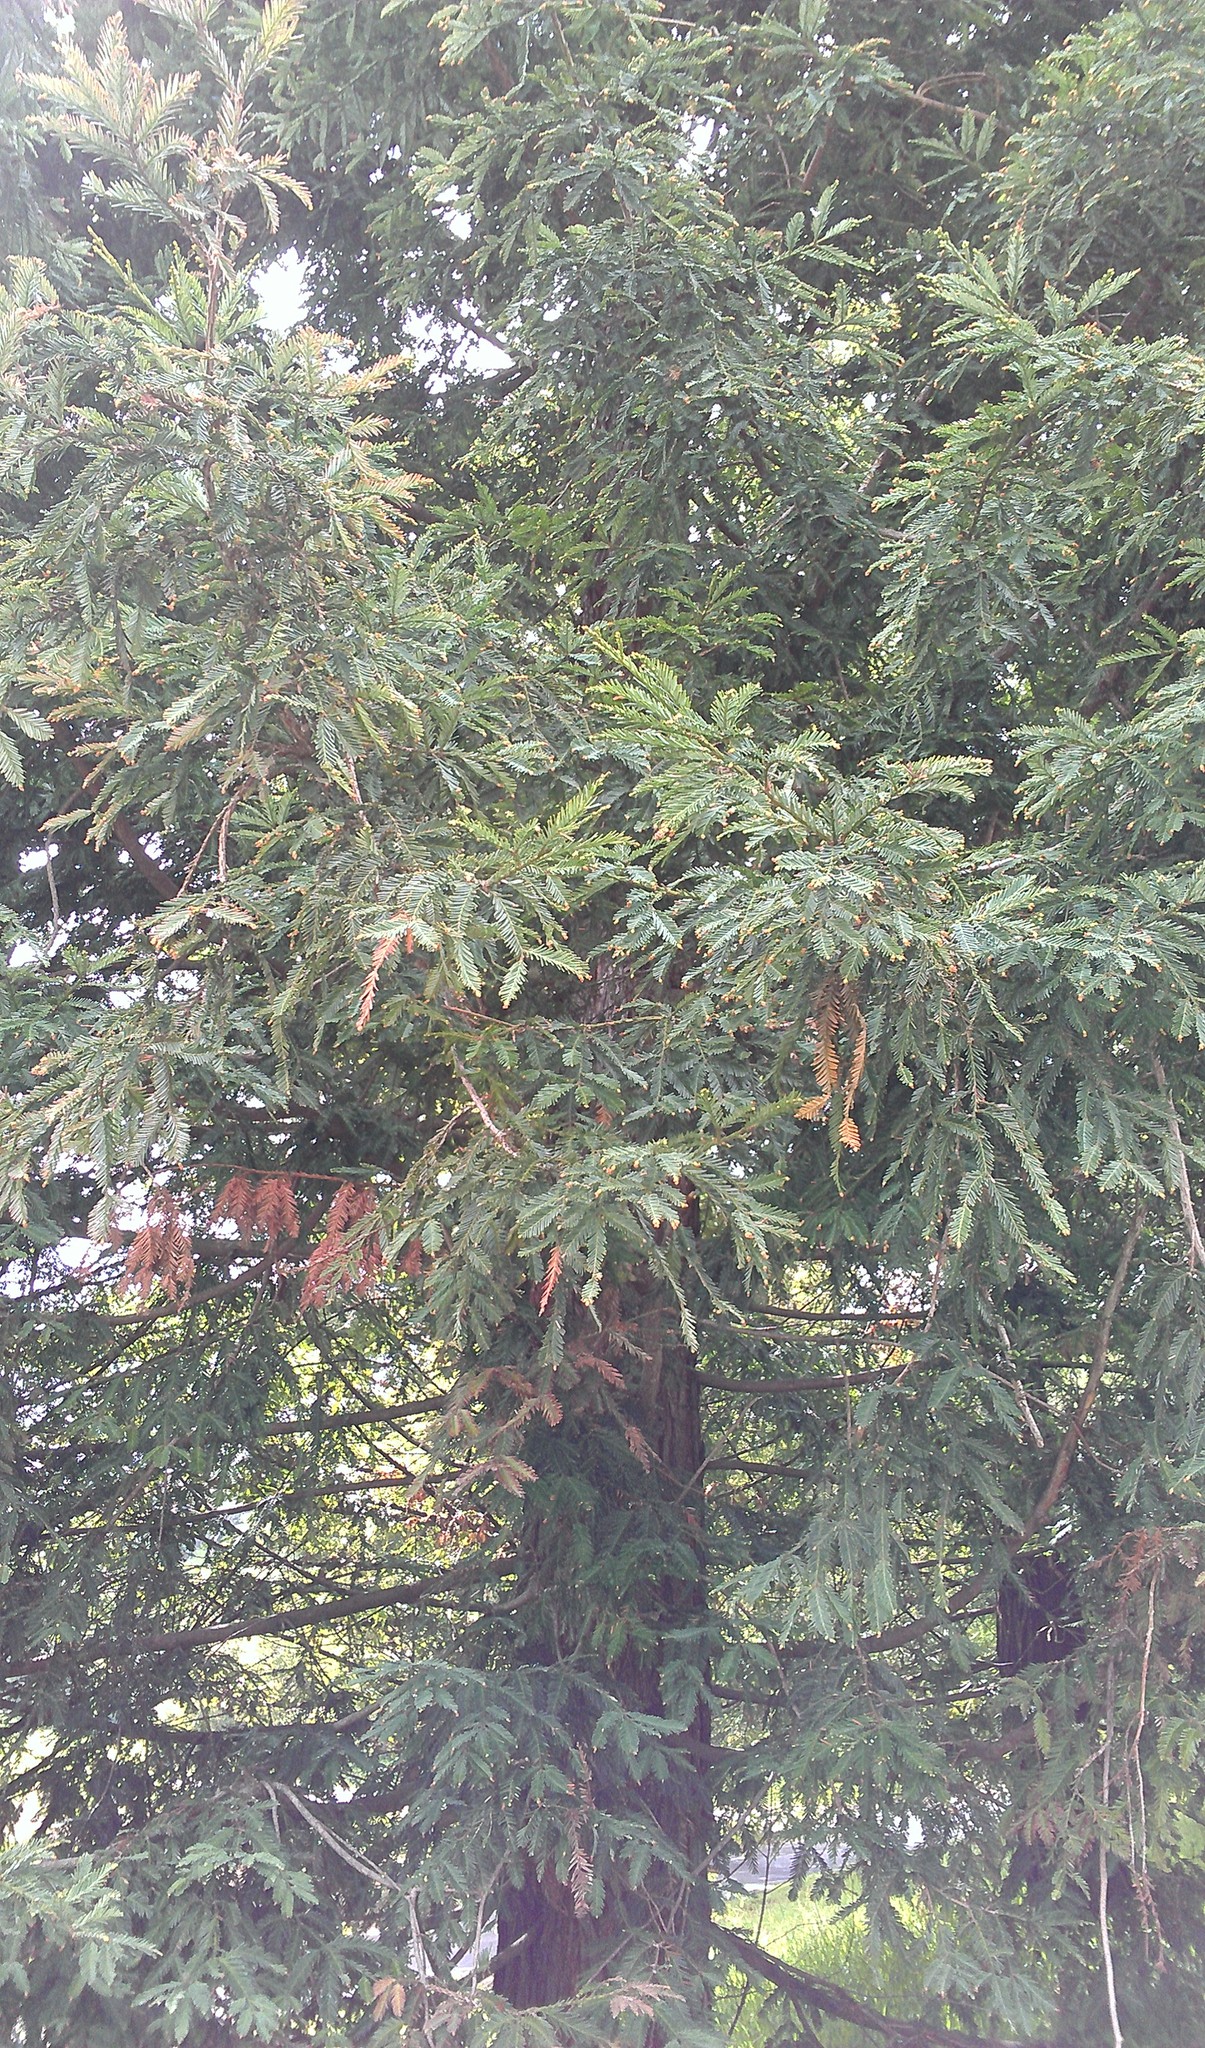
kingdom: Plantae
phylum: Tracheophyta
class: Pinopsida
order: Pinales
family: Cupressaceae
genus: Sequoia
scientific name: Sequoia sempervirens
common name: Coast redwood
